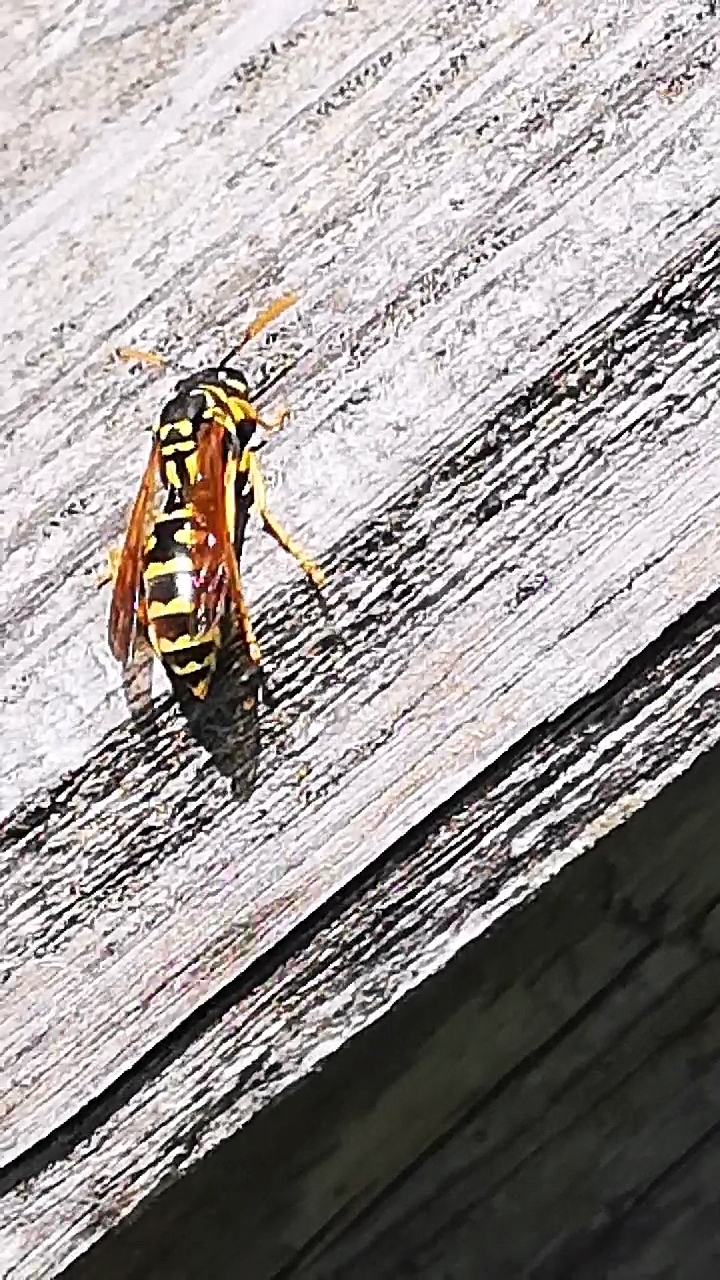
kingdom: Animalia
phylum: Arthropoda
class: Insecta
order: Hymenoptera
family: Eumenidae
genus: Polistes
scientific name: Polistes dominula
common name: Paper wasp
